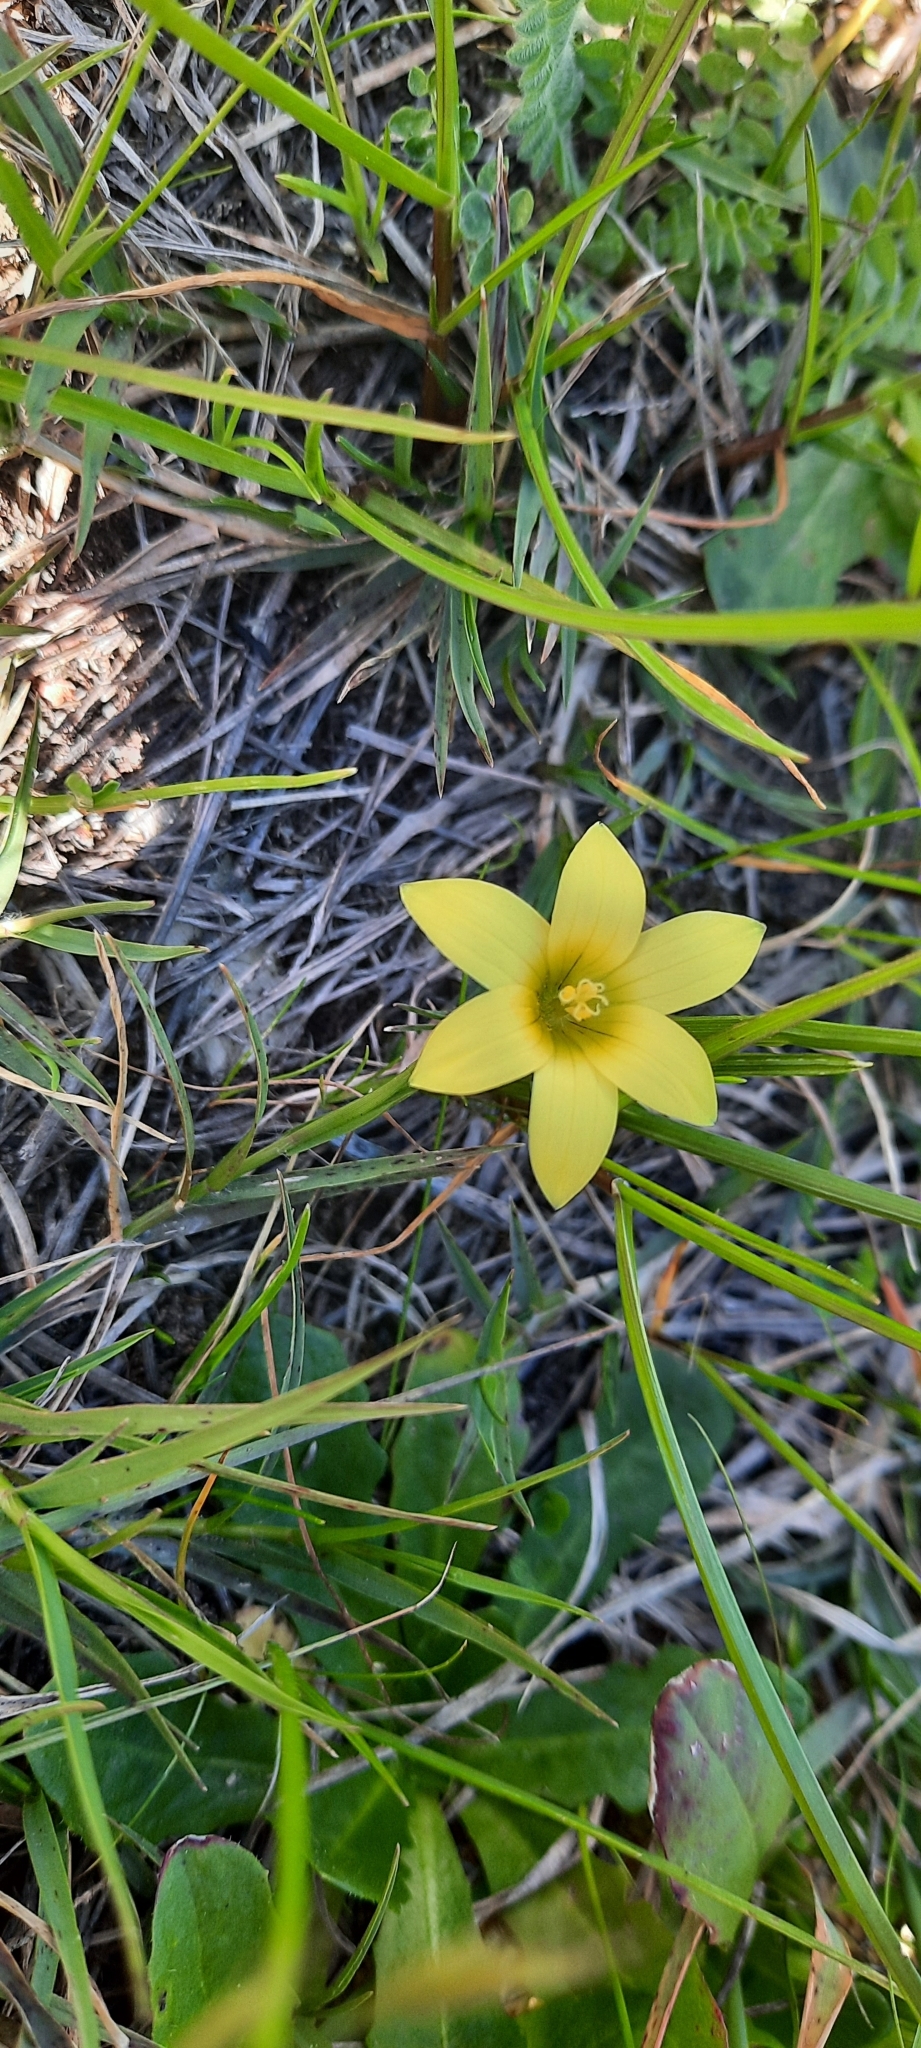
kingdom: Plantae
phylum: Tracheophyta
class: Liliopsida
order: Asparagales
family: Iridaceae
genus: Romulea
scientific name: Romulea flava
